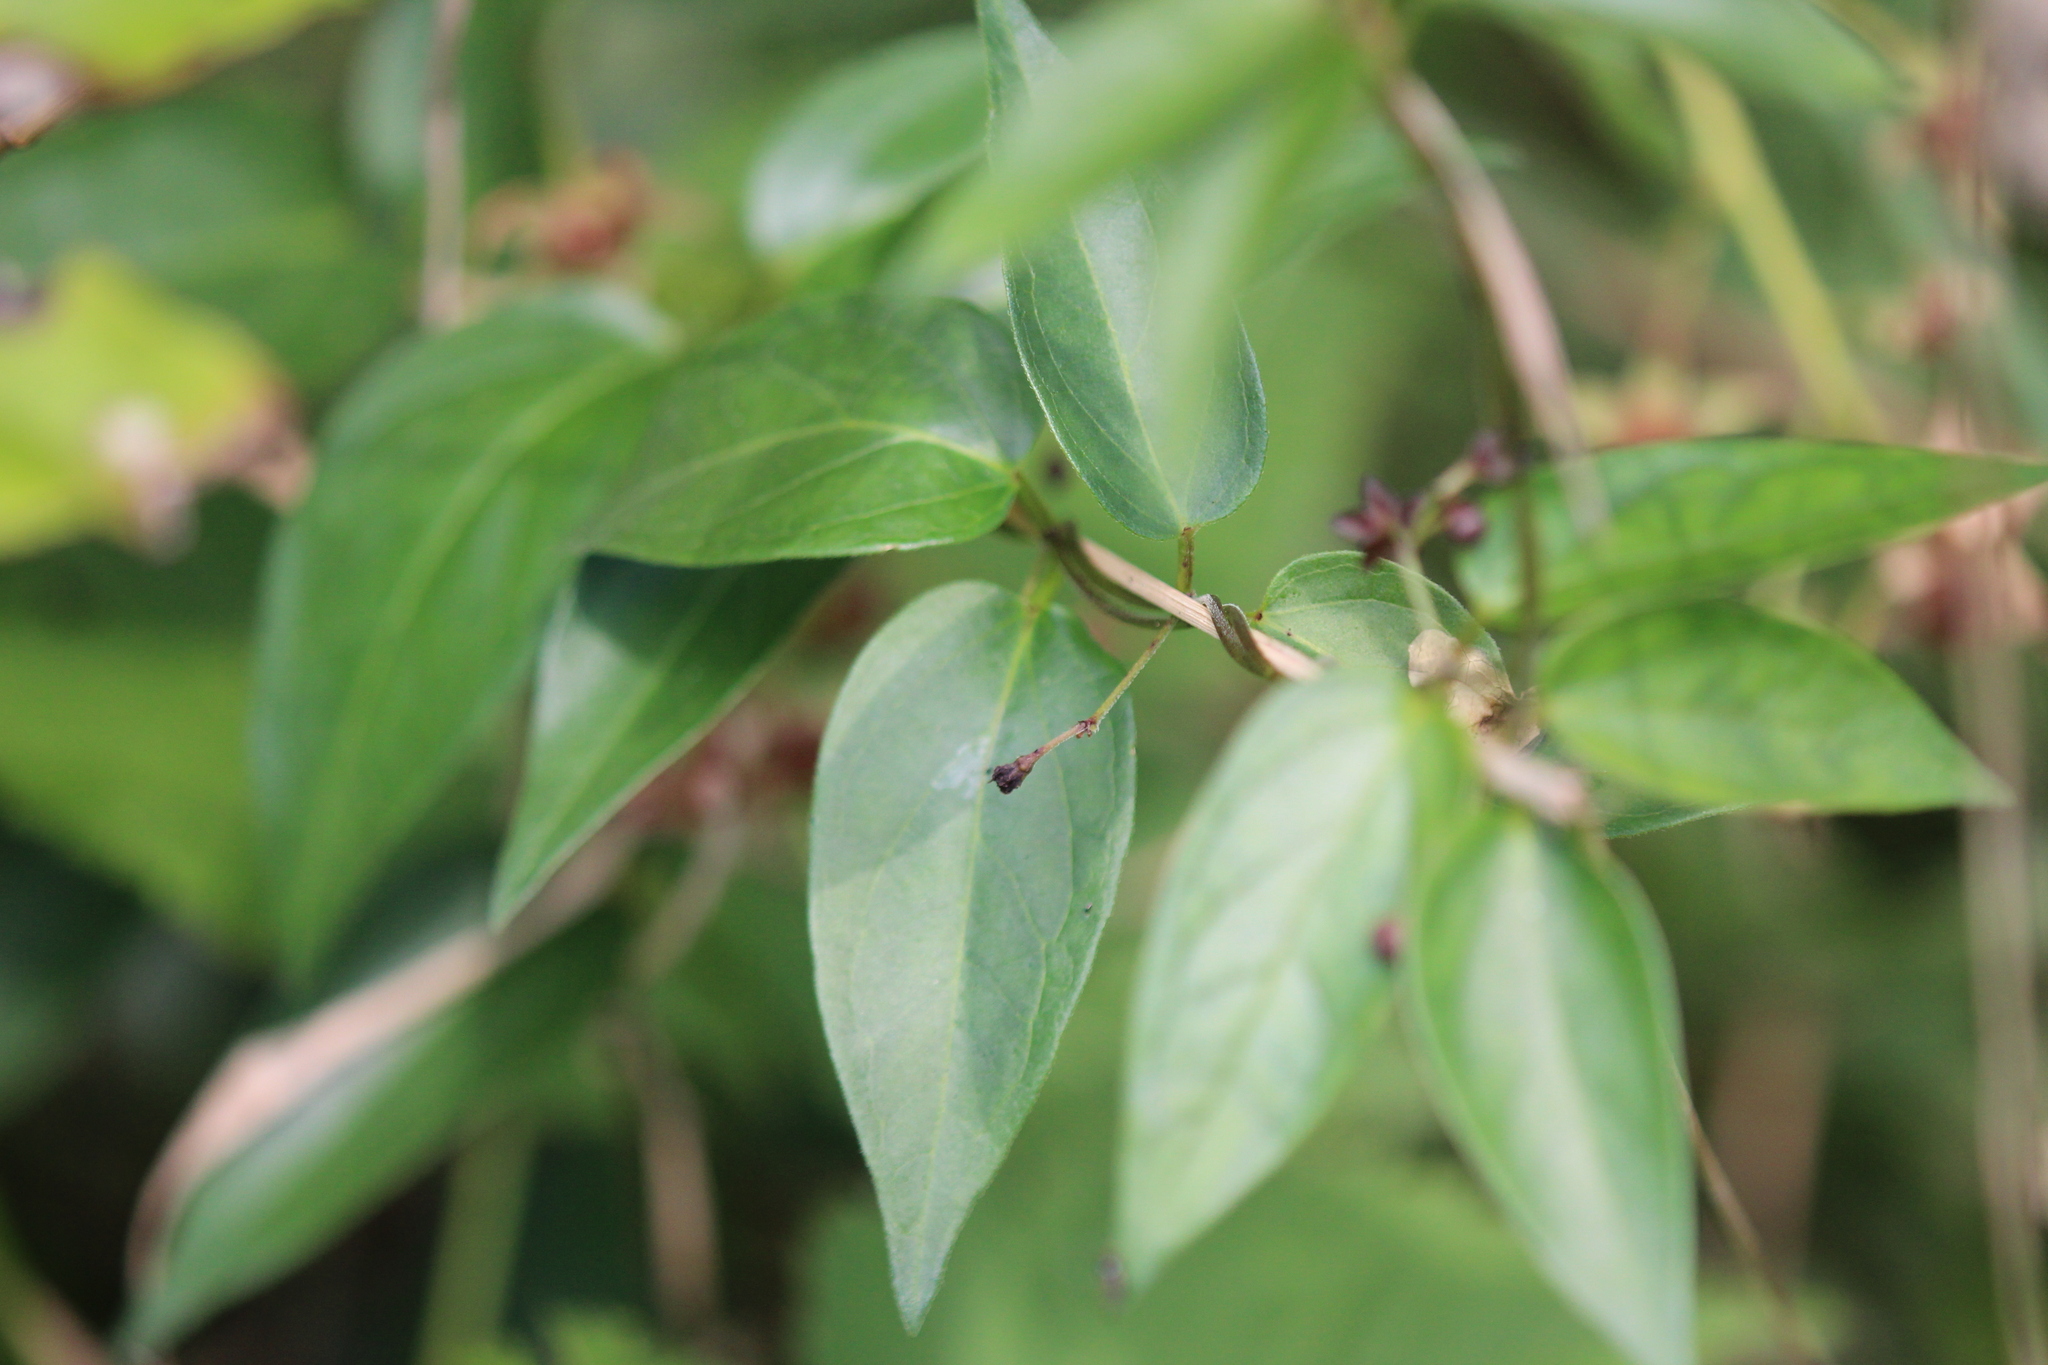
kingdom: Plantae
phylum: Tracheophyta
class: Magnoliopsida
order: Gentianales
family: Apocynaceae
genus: Vincetoxicum
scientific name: Vincetoxicum nigrum
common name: Black swallow-wort
